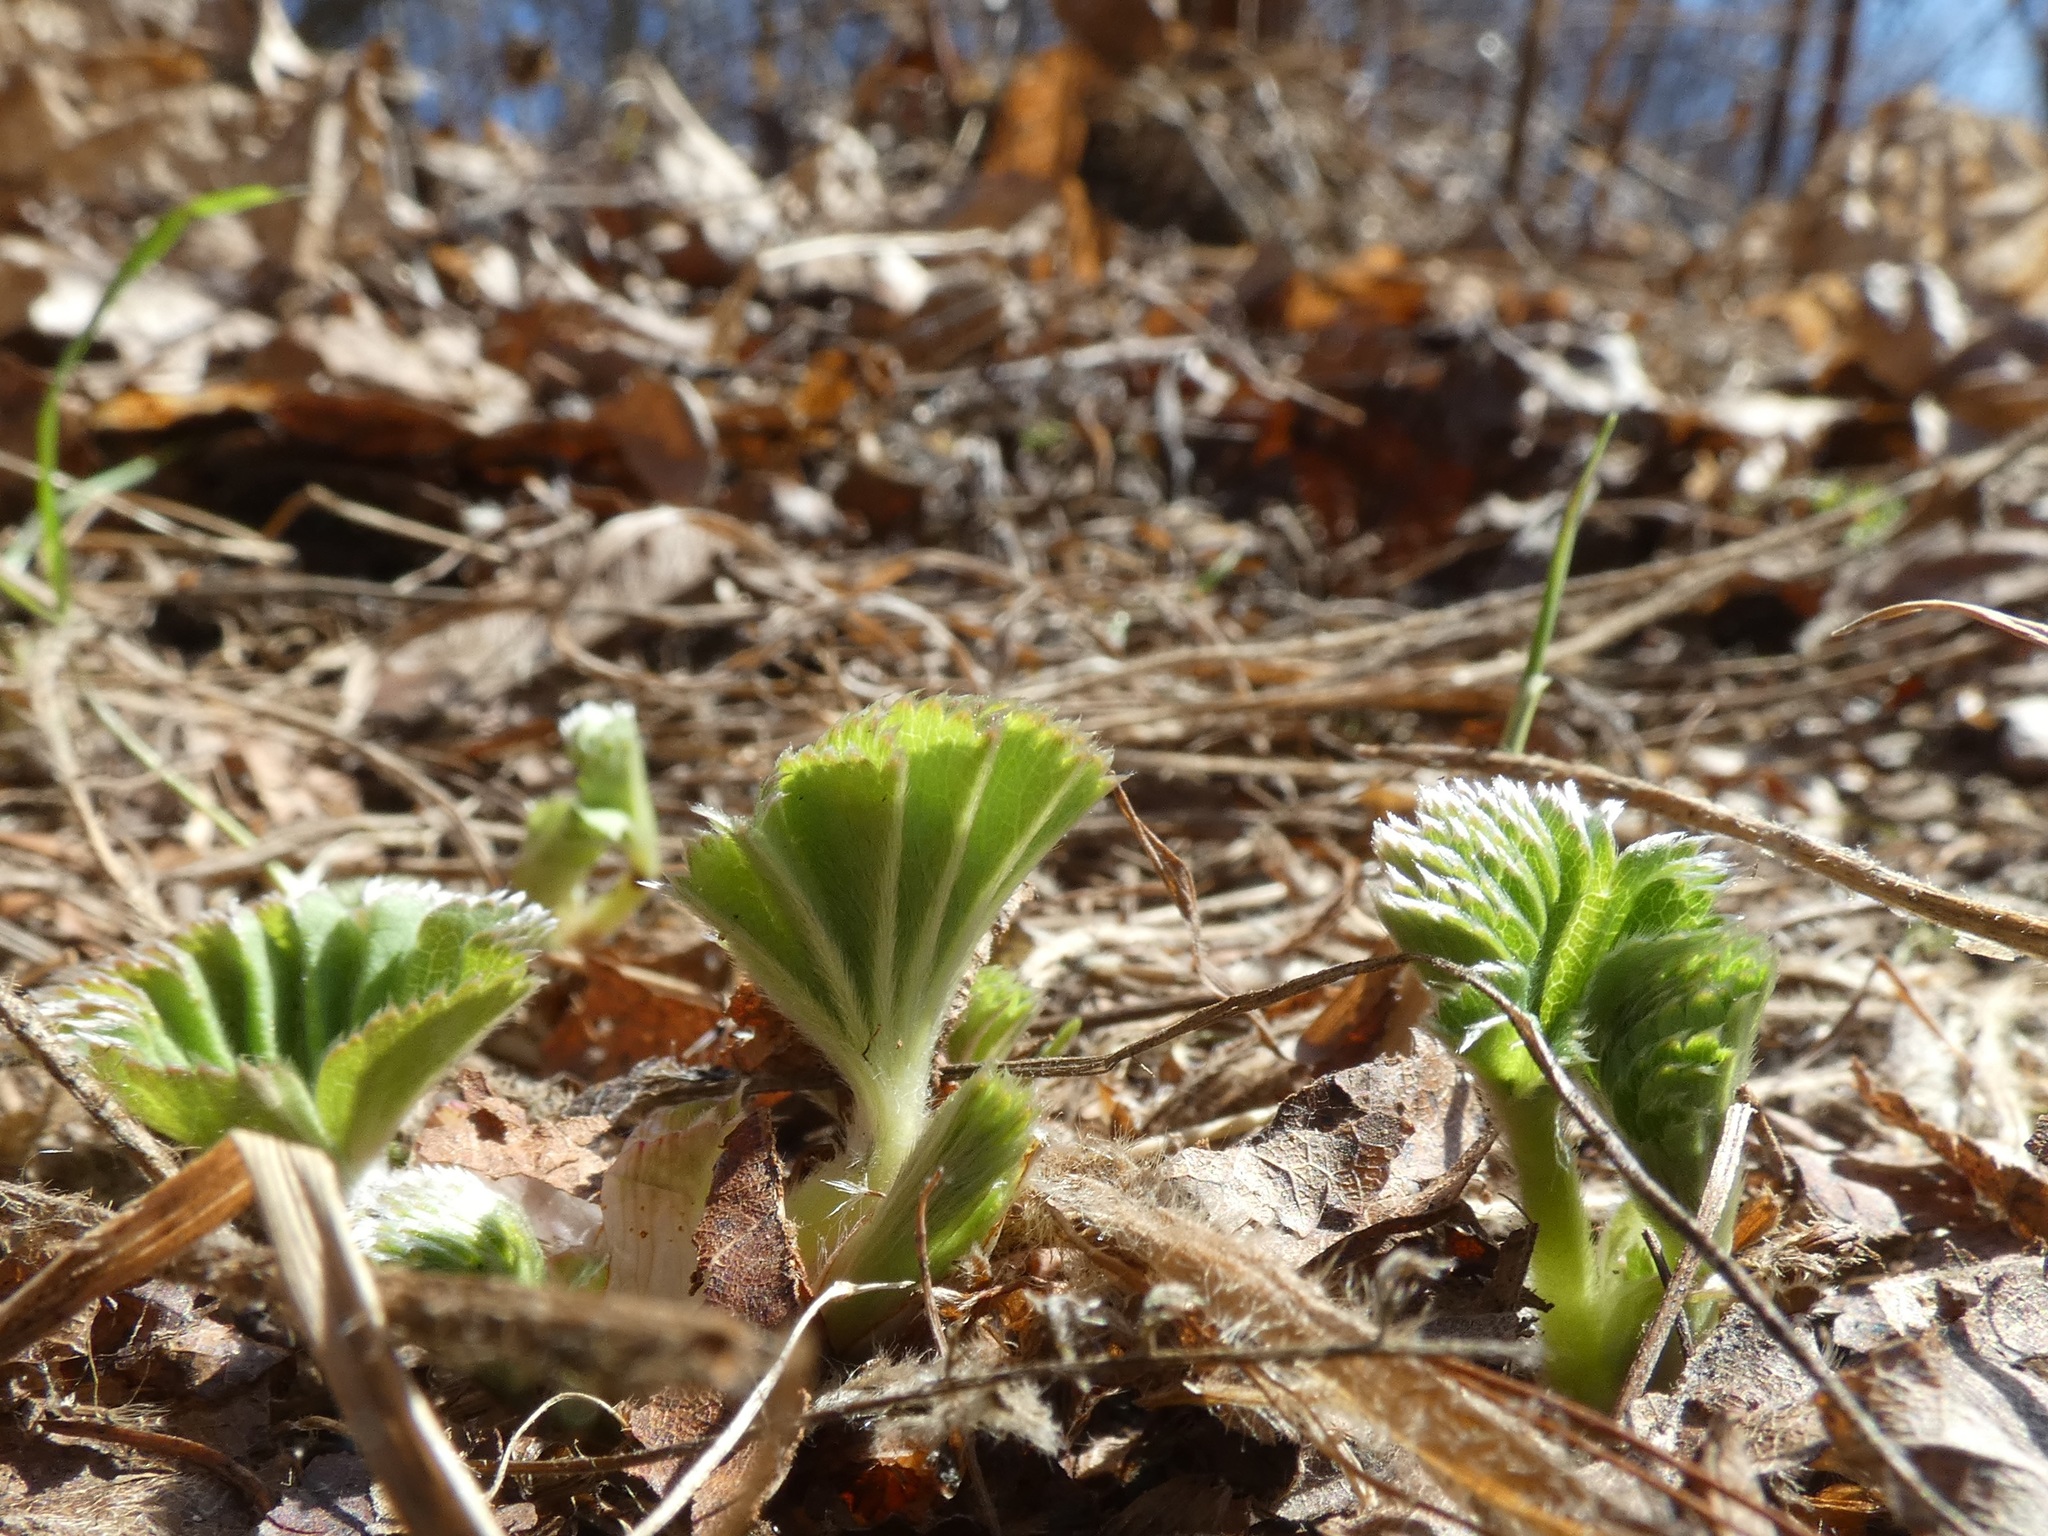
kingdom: Plantae
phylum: Tracheophyta
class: Magnoliopsida
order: Rosales
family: Rosaceae
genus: Alchemilla
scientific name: Alchemilla
